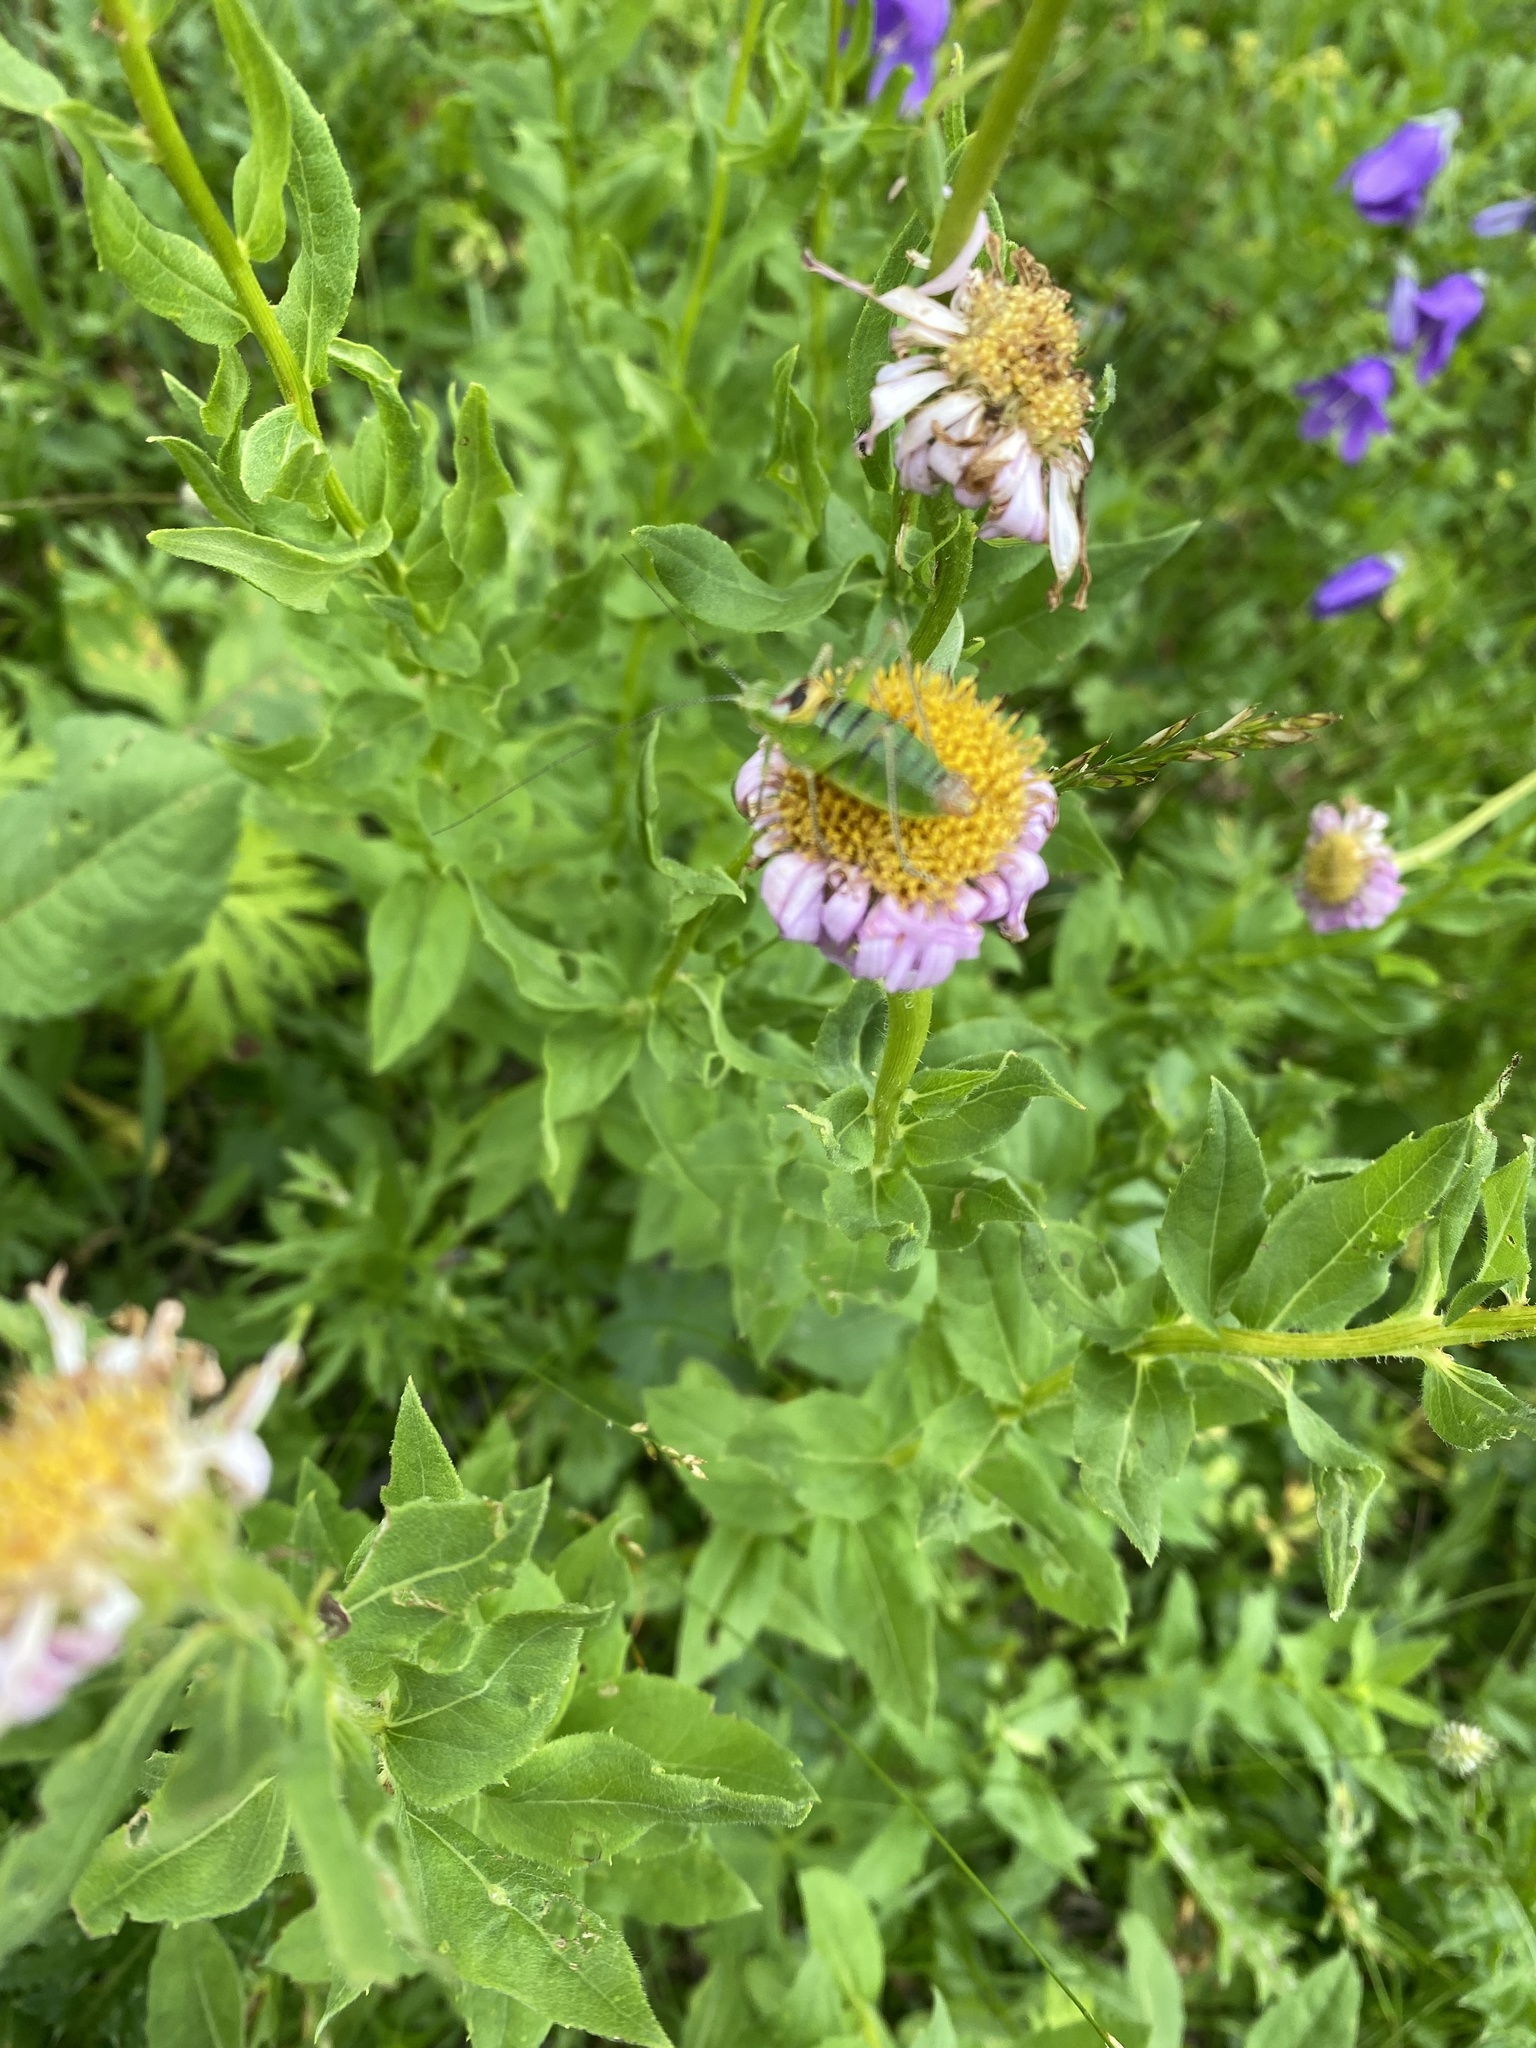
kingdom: Plantae
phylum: Tracheophyta
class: Magnoliopsida
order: Asterales
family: Asteraceae
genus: Kemulariella
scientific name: Kemulariella caucasica
